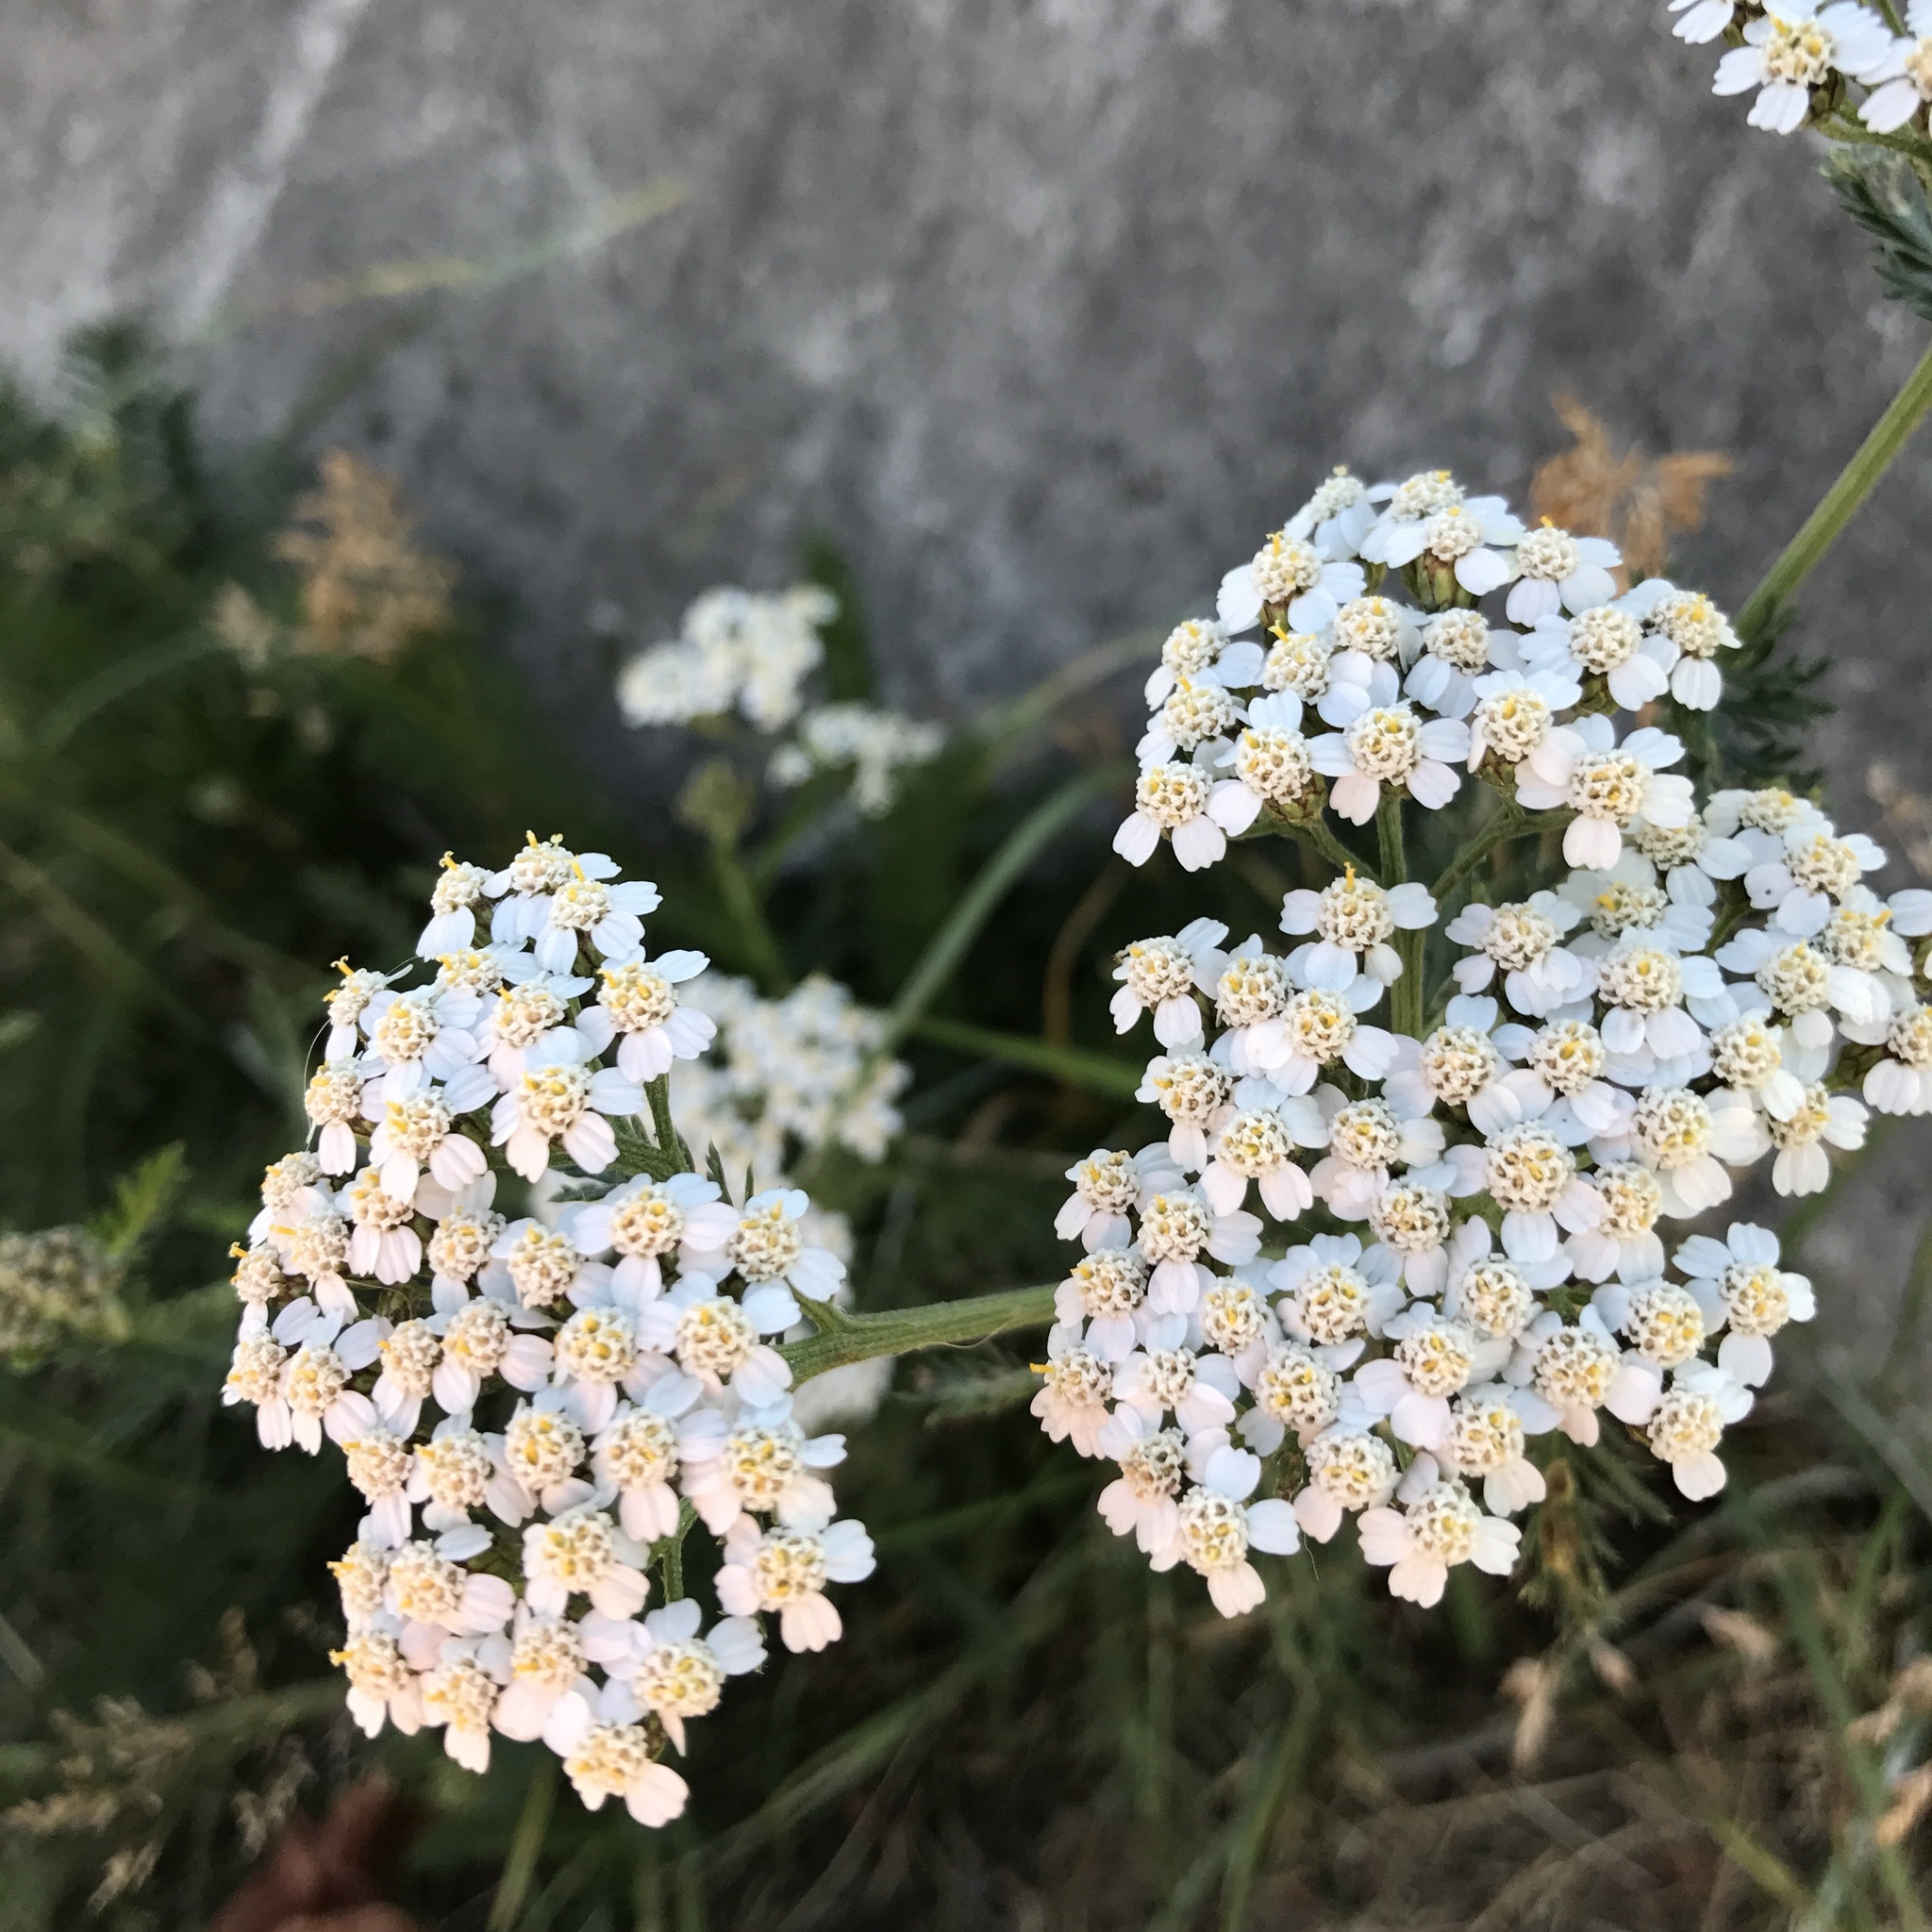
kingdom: Plantae
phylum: Tracheophyta
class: Magnoliopsida
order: Asterales
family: Asteraceae
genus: Achillea
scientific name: Achillea millefolium
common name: Yarrow
